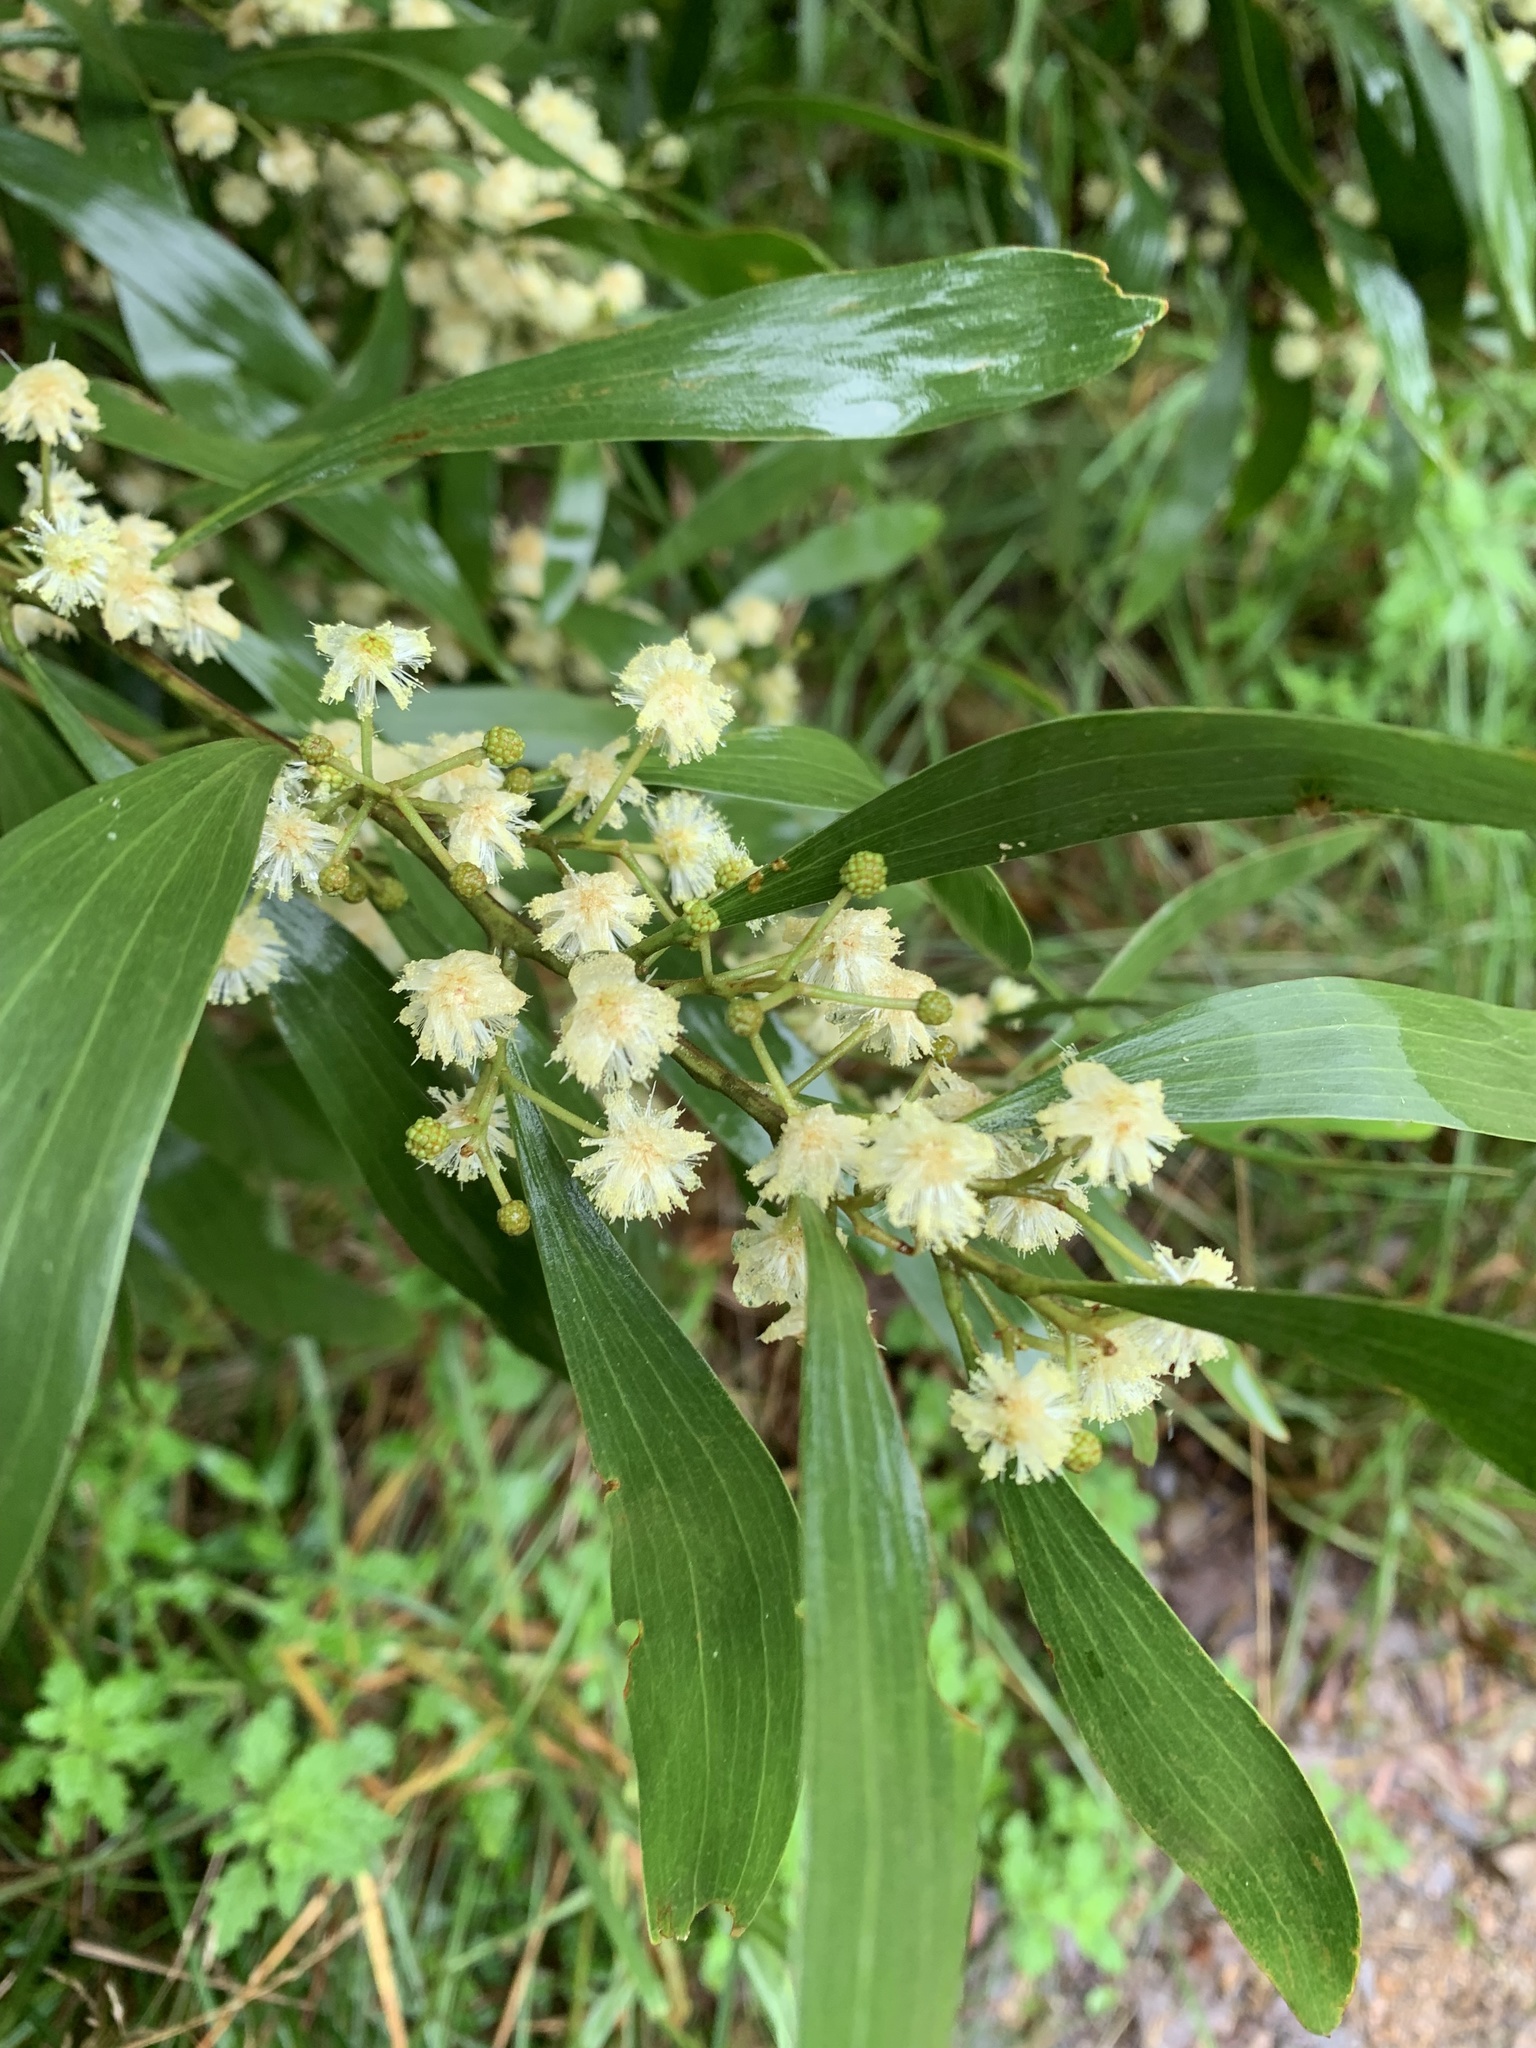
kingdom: Plantae
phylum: Tracheophyta
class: Magnoliopsida
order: Fabales
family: Fabaceae
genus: Acacia
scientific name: Acacia melanoxylon
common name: Blackwood
